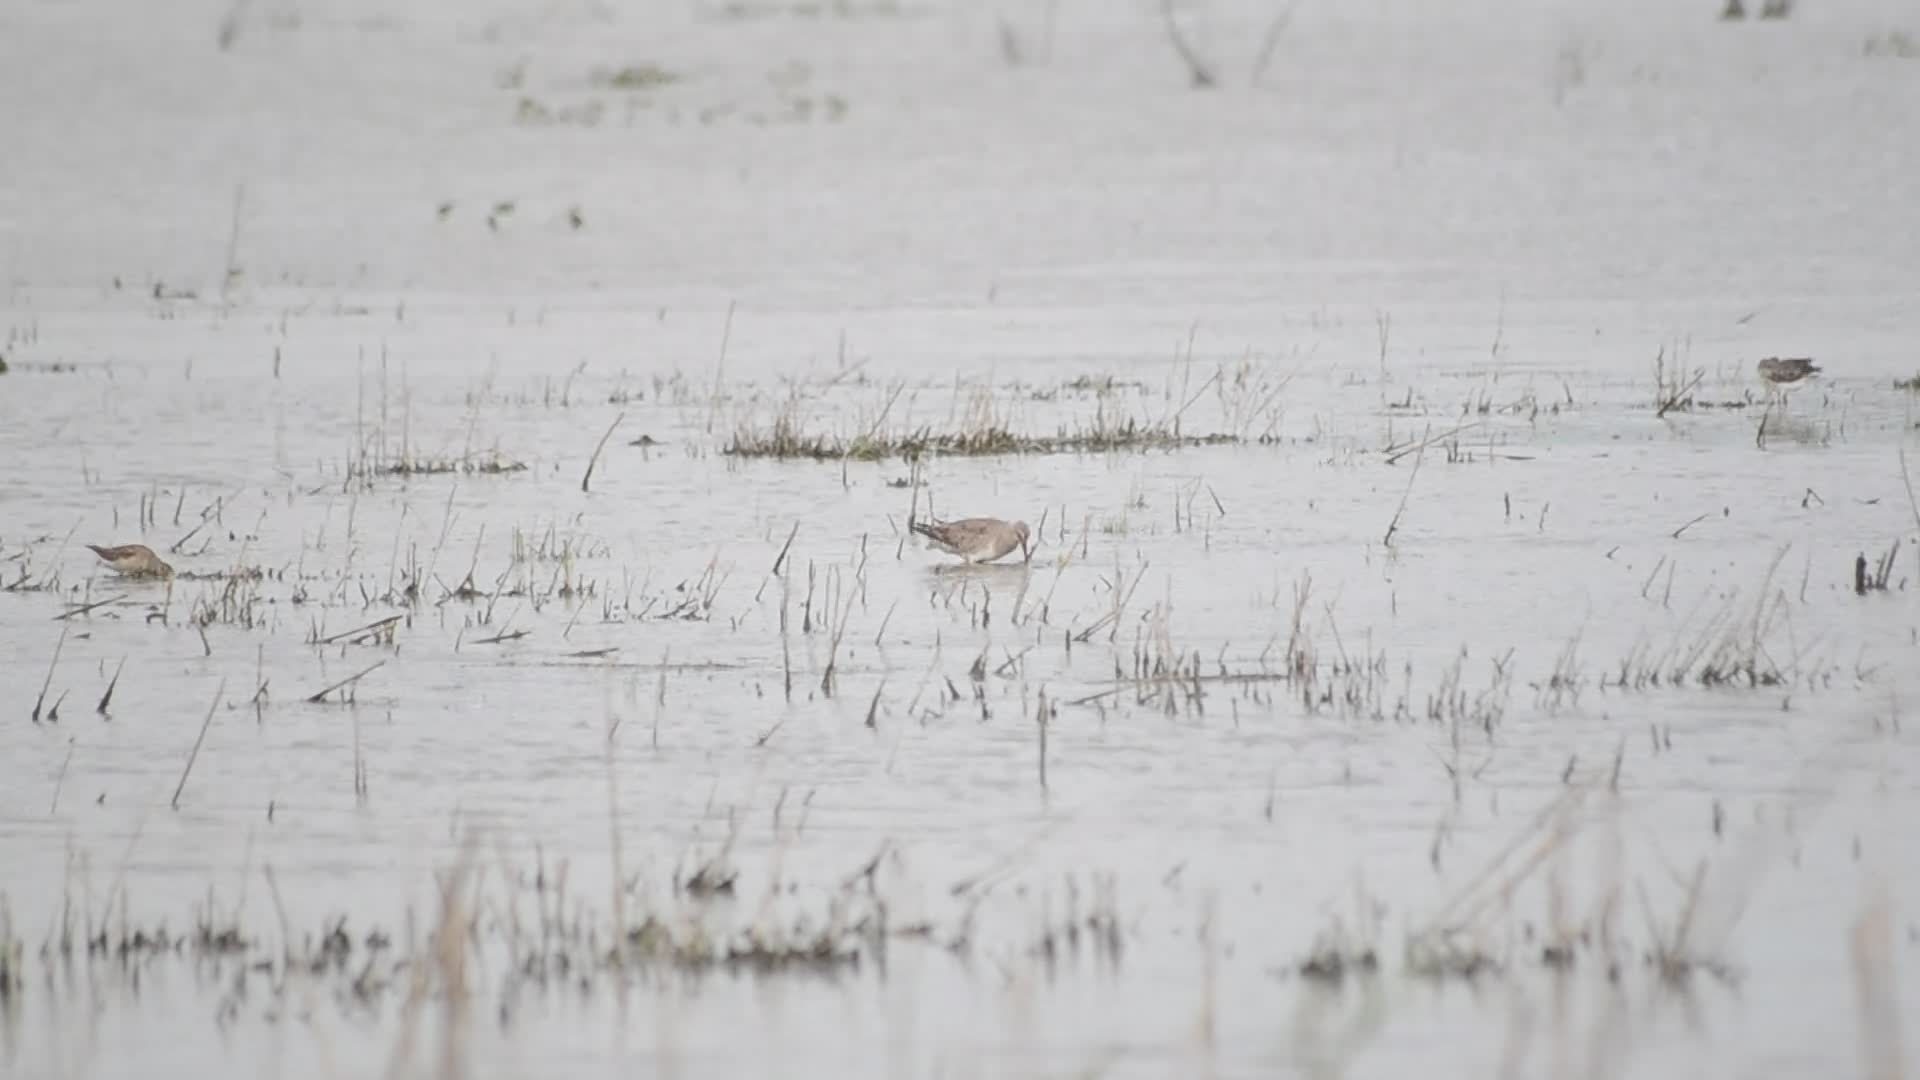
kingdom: Animalia
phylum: Chordata
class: Aves
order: Charadriiformes
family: Scolopacidae
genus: Limosa
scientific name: Limosa haemastica
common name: Hudsonian godwit
